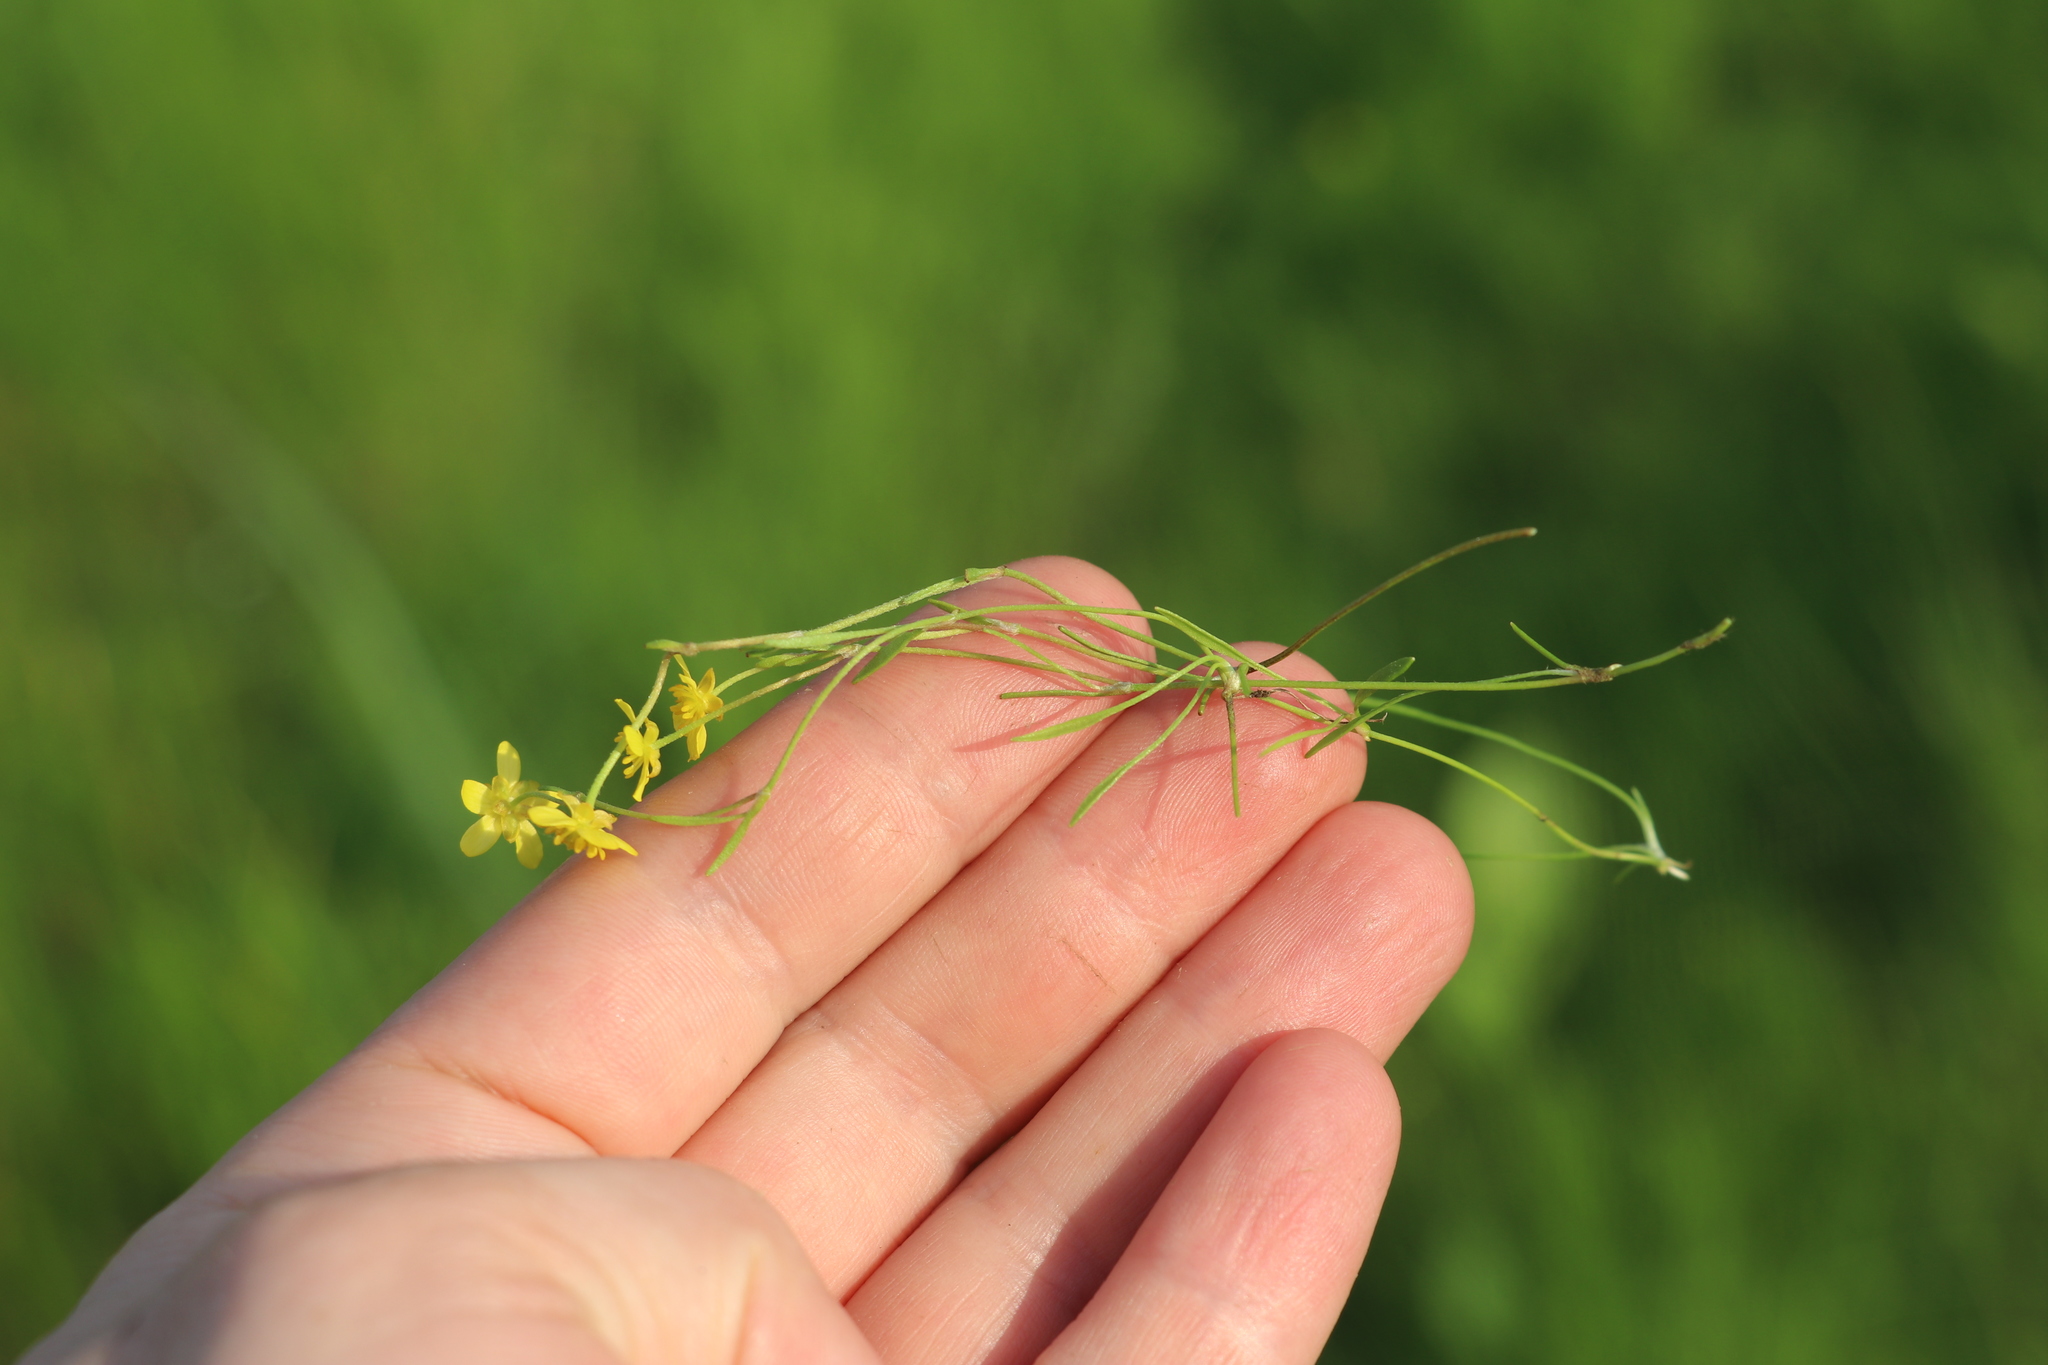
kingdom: Plantae
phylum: Tracheophyta
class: Magnoliopsida
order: Ranunculales
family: Ranunculaceae
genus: Ranunculus
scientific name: Ranunculus reptans
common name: Creeping spearwort
